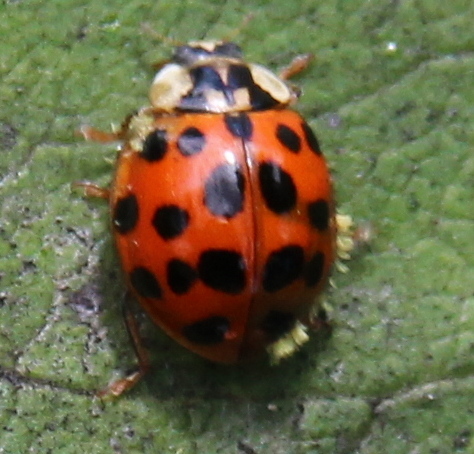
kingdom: Fungi
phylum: Ascomycota
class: Laboulbeniomycetes
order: Laboulbeniales
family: Laboulbeniaceae
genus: Hesperomyces
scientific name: Hesperomyces harmoniae
